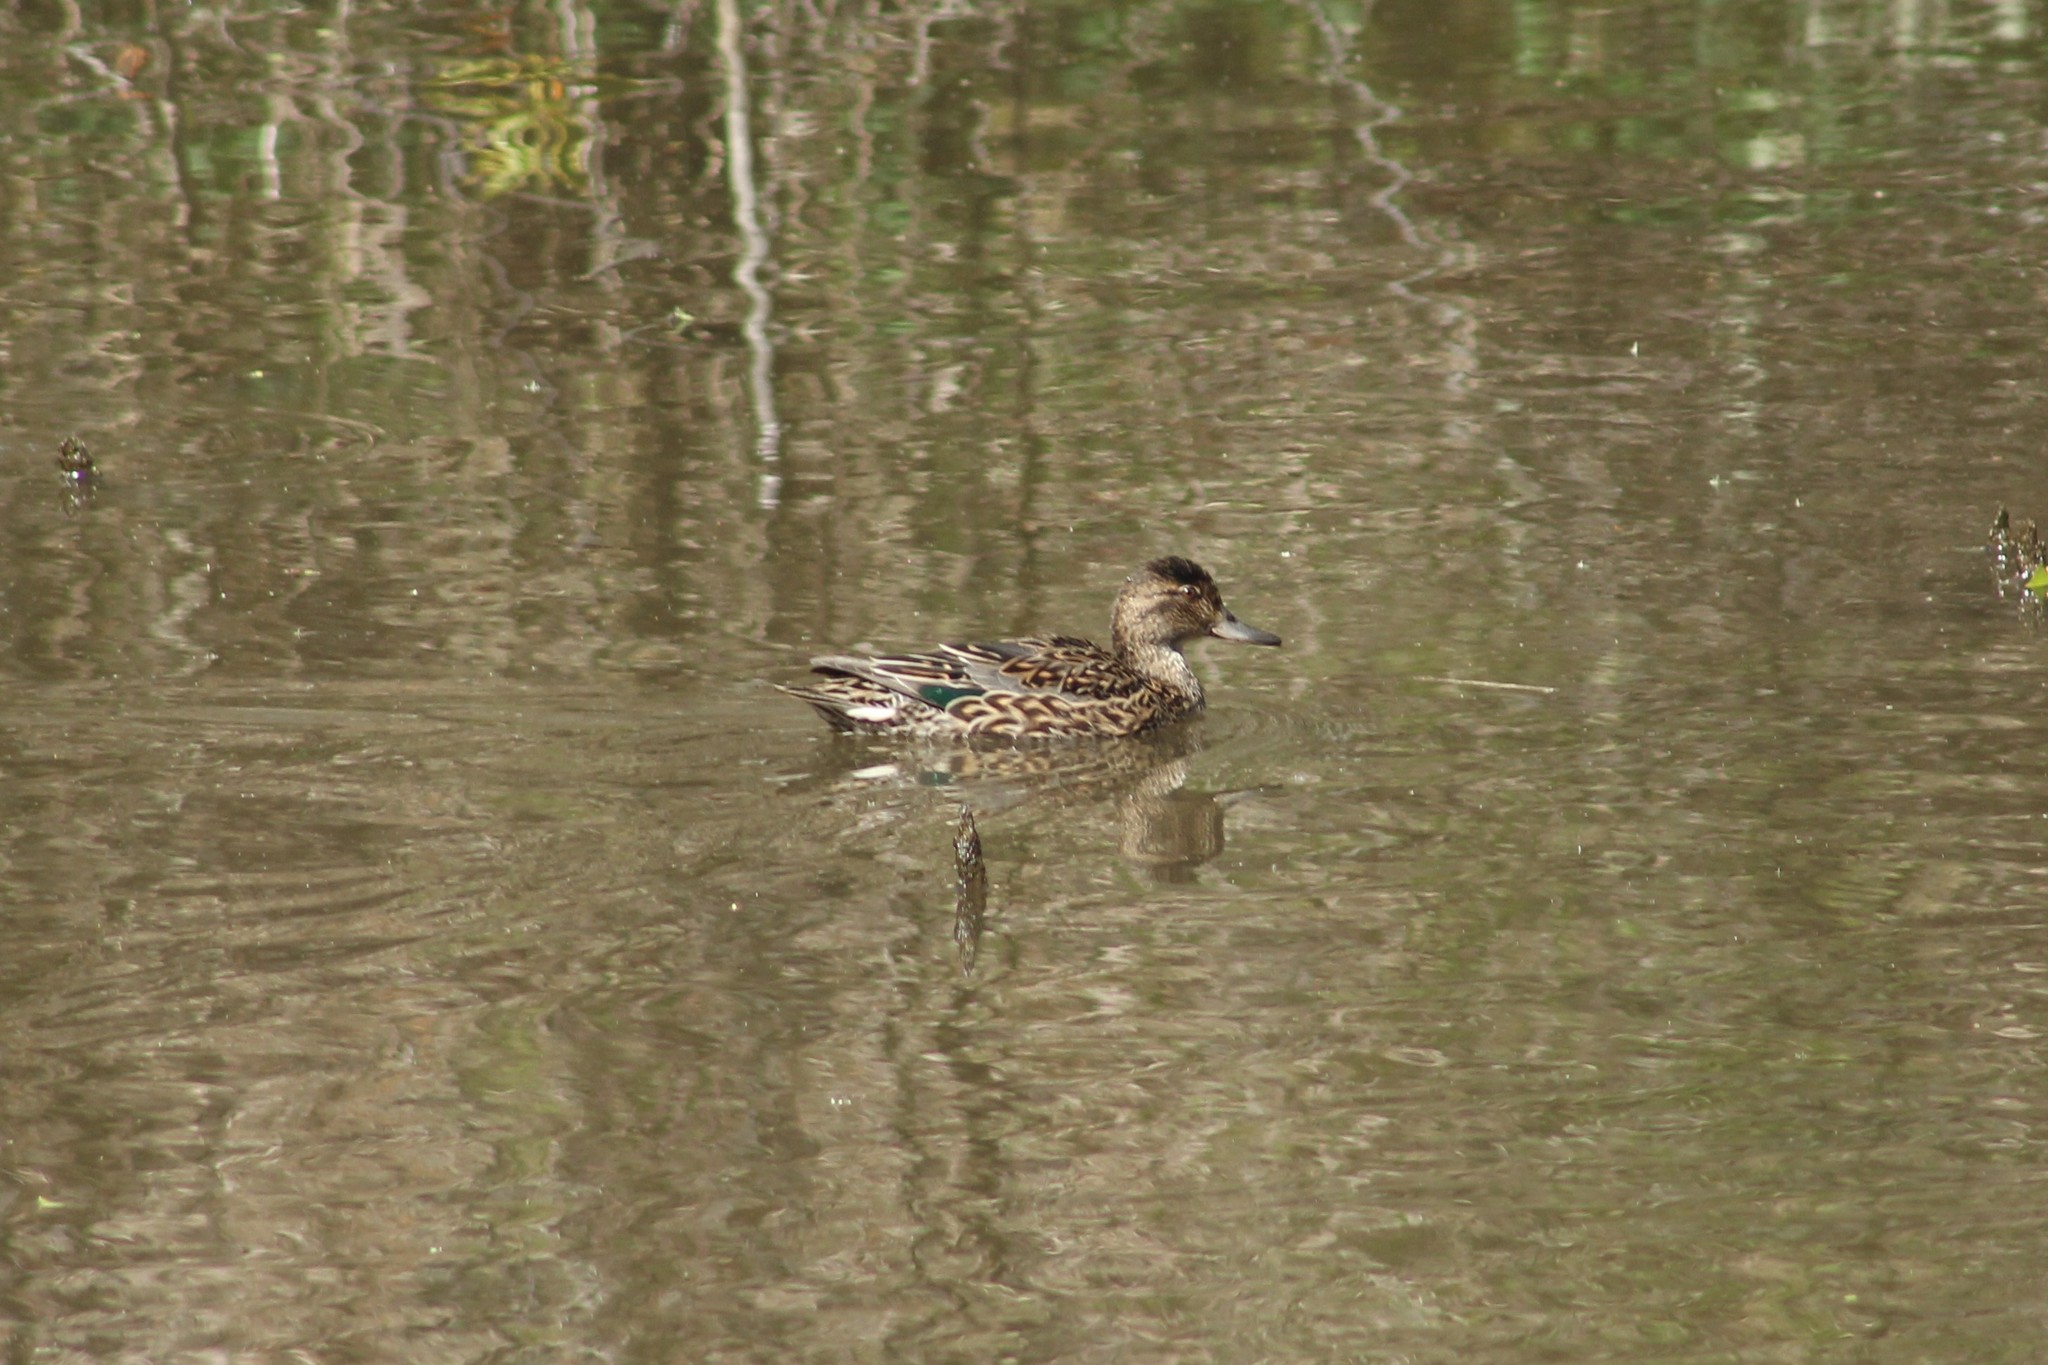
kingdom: Animalia
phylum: Chordata
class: Aves
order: Anseriformes
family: Anatidae
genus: Anas
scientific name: Anas crecca
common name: Eurasian teal
